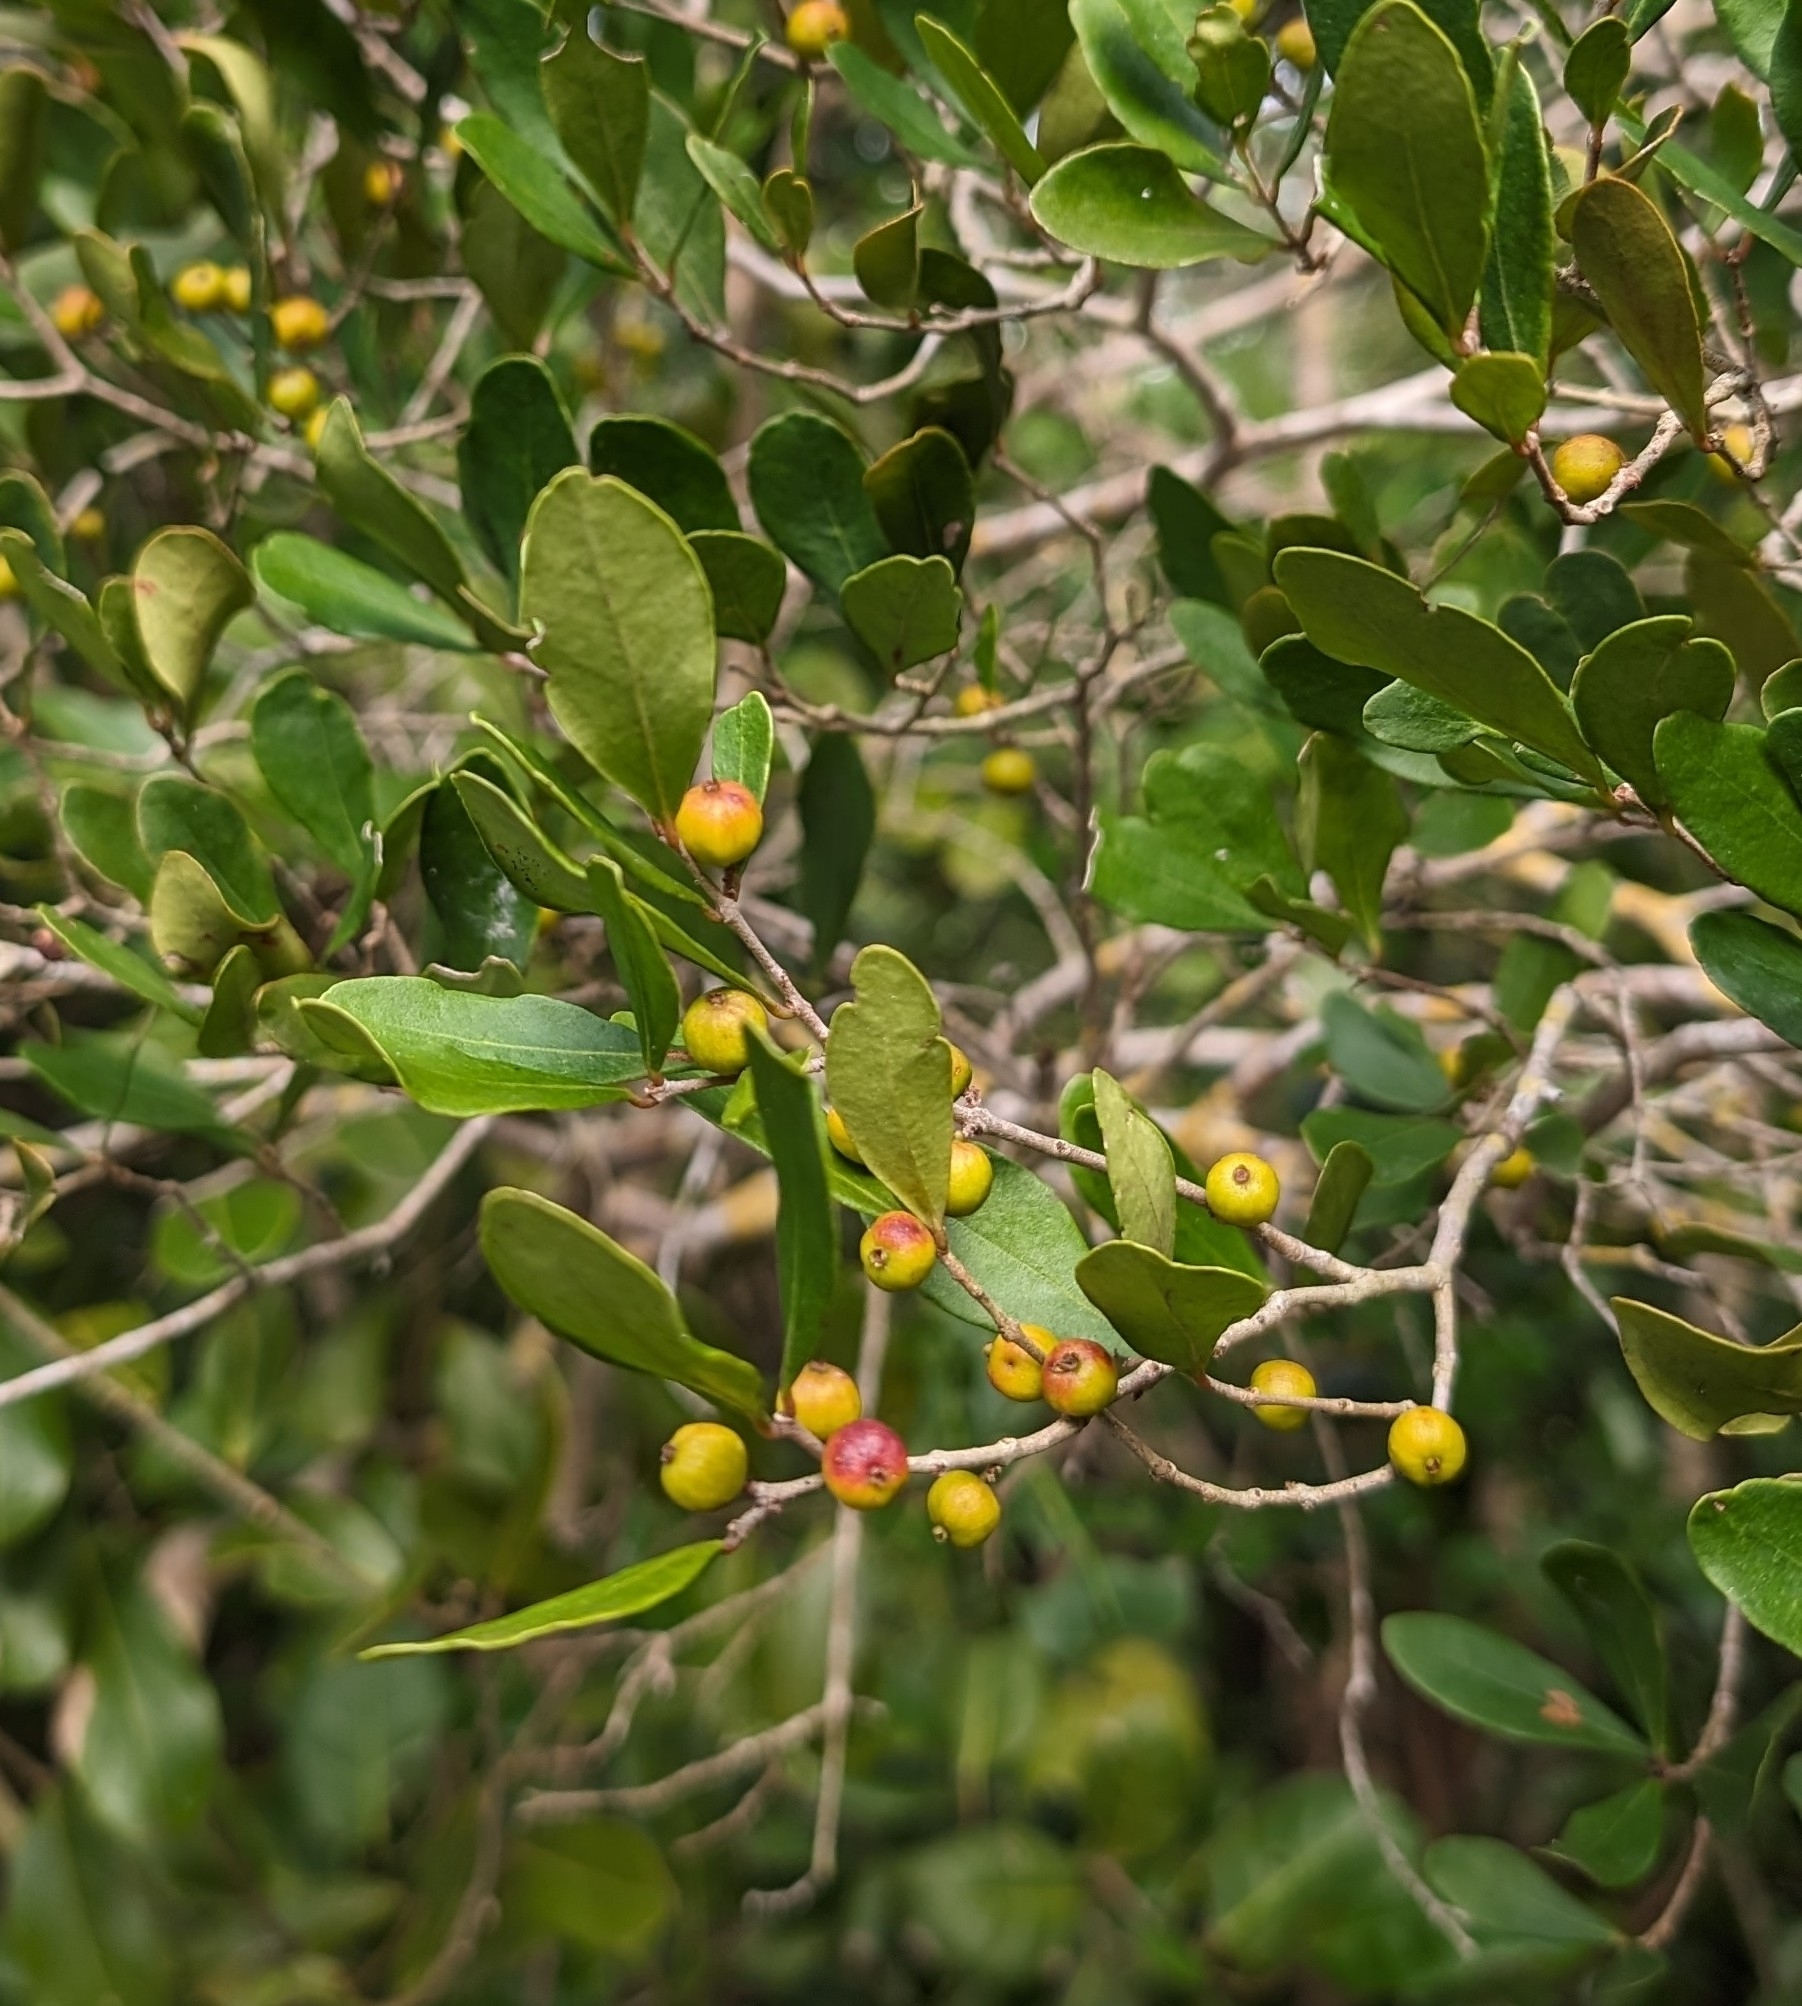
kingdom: Plantae
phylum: Tracheophyta
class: Magnoliopsida
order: Myrtales
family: Myrtaceae
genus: Eugenia
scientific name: Eugenia foetida
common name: White wattling
